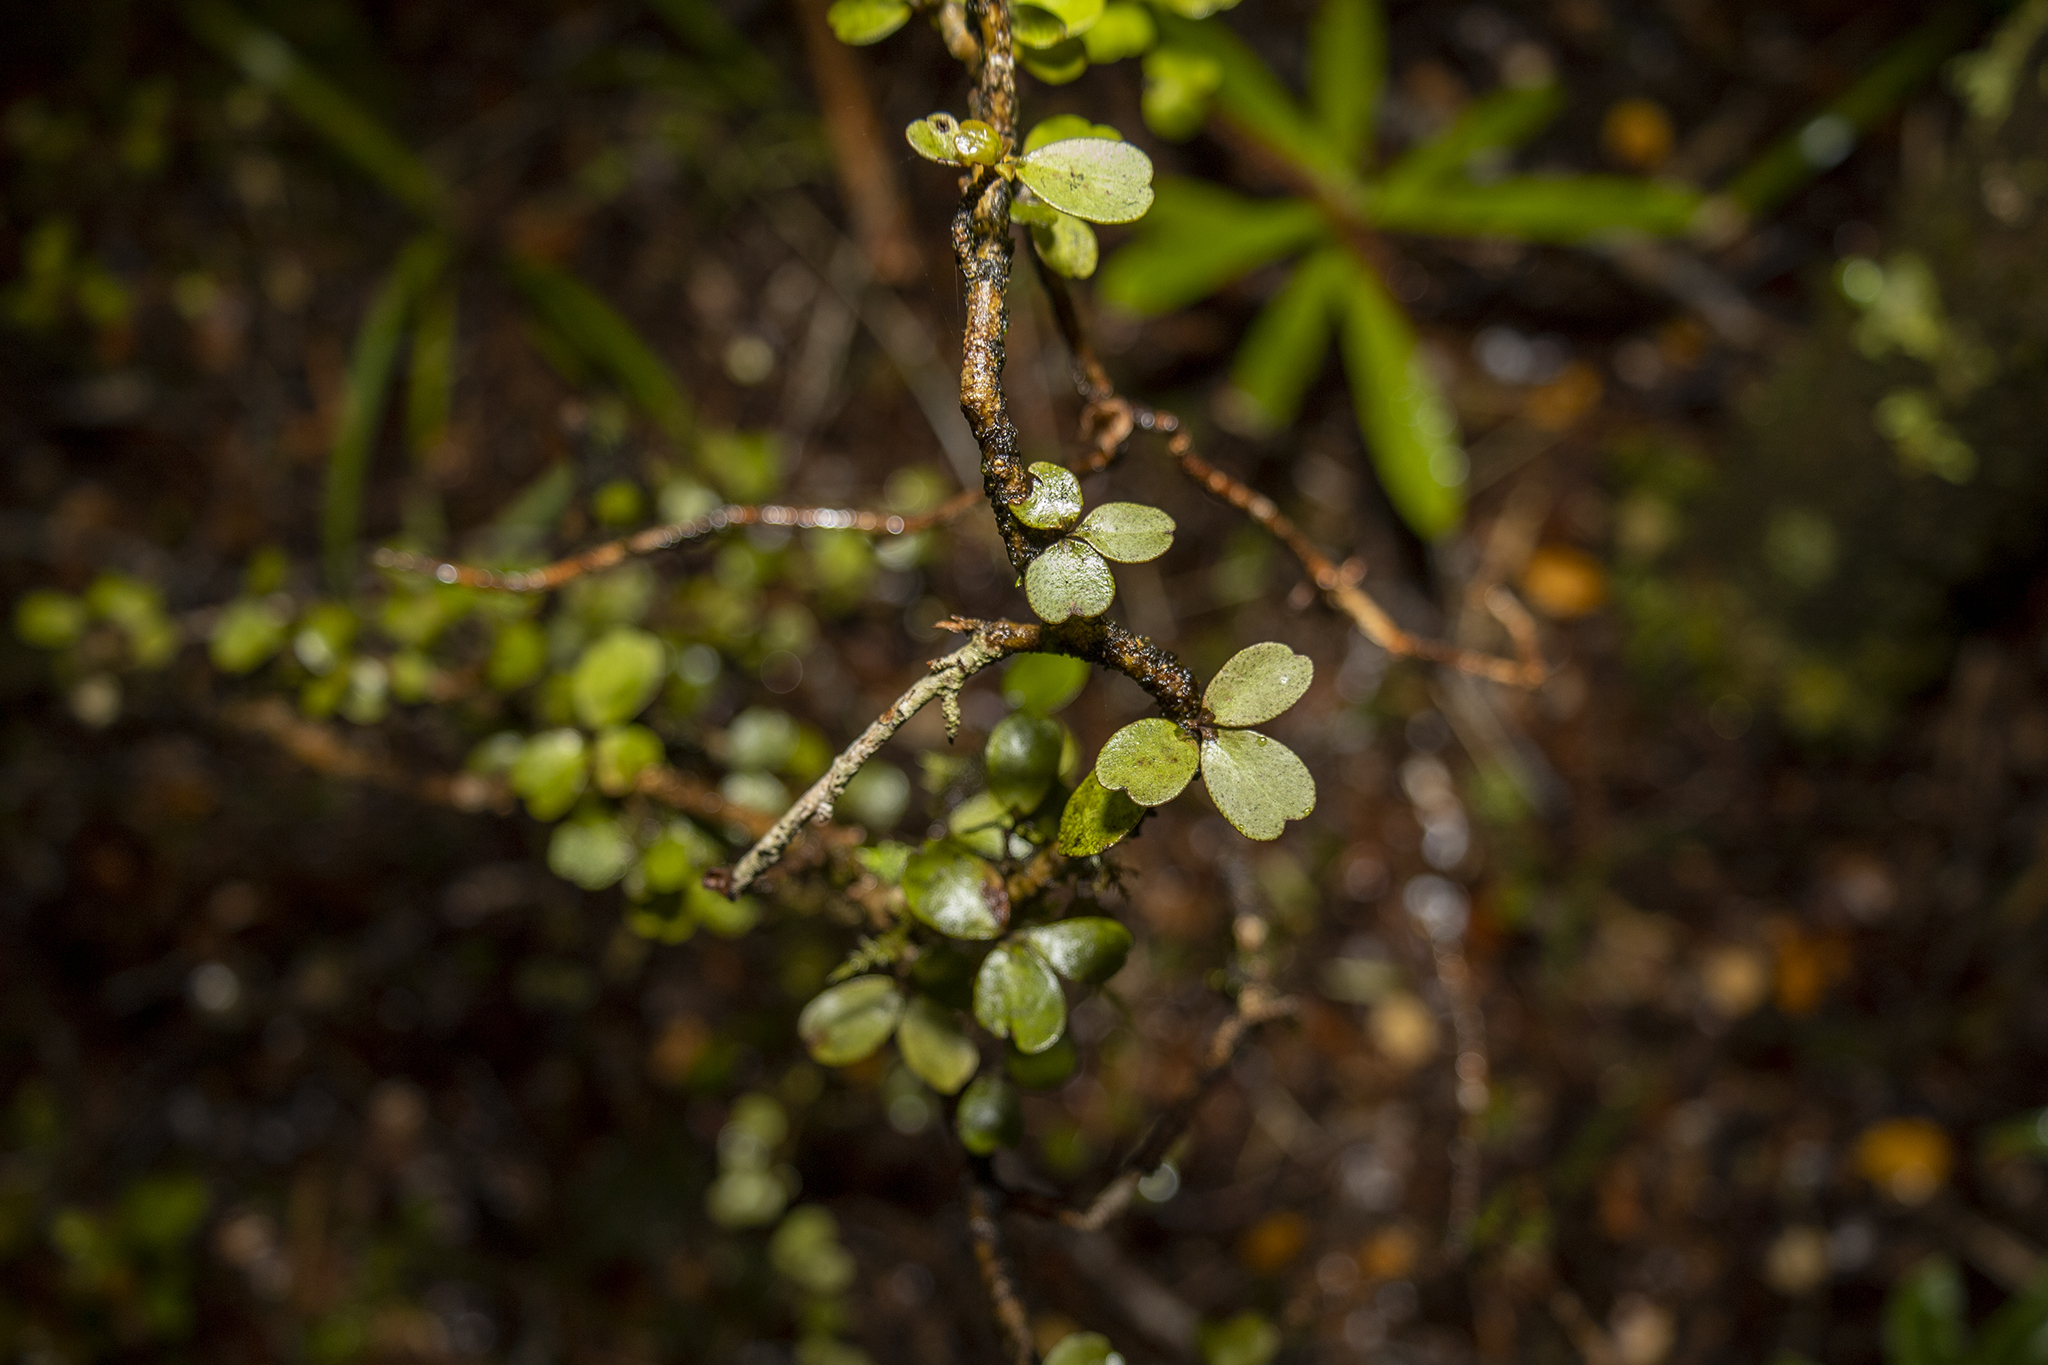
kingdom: Plantae
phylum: Tracheophyta
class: Magnoliopsida
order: Ericales
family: Primulaceae
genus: Myrsine
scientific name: Myrsine divaricata
